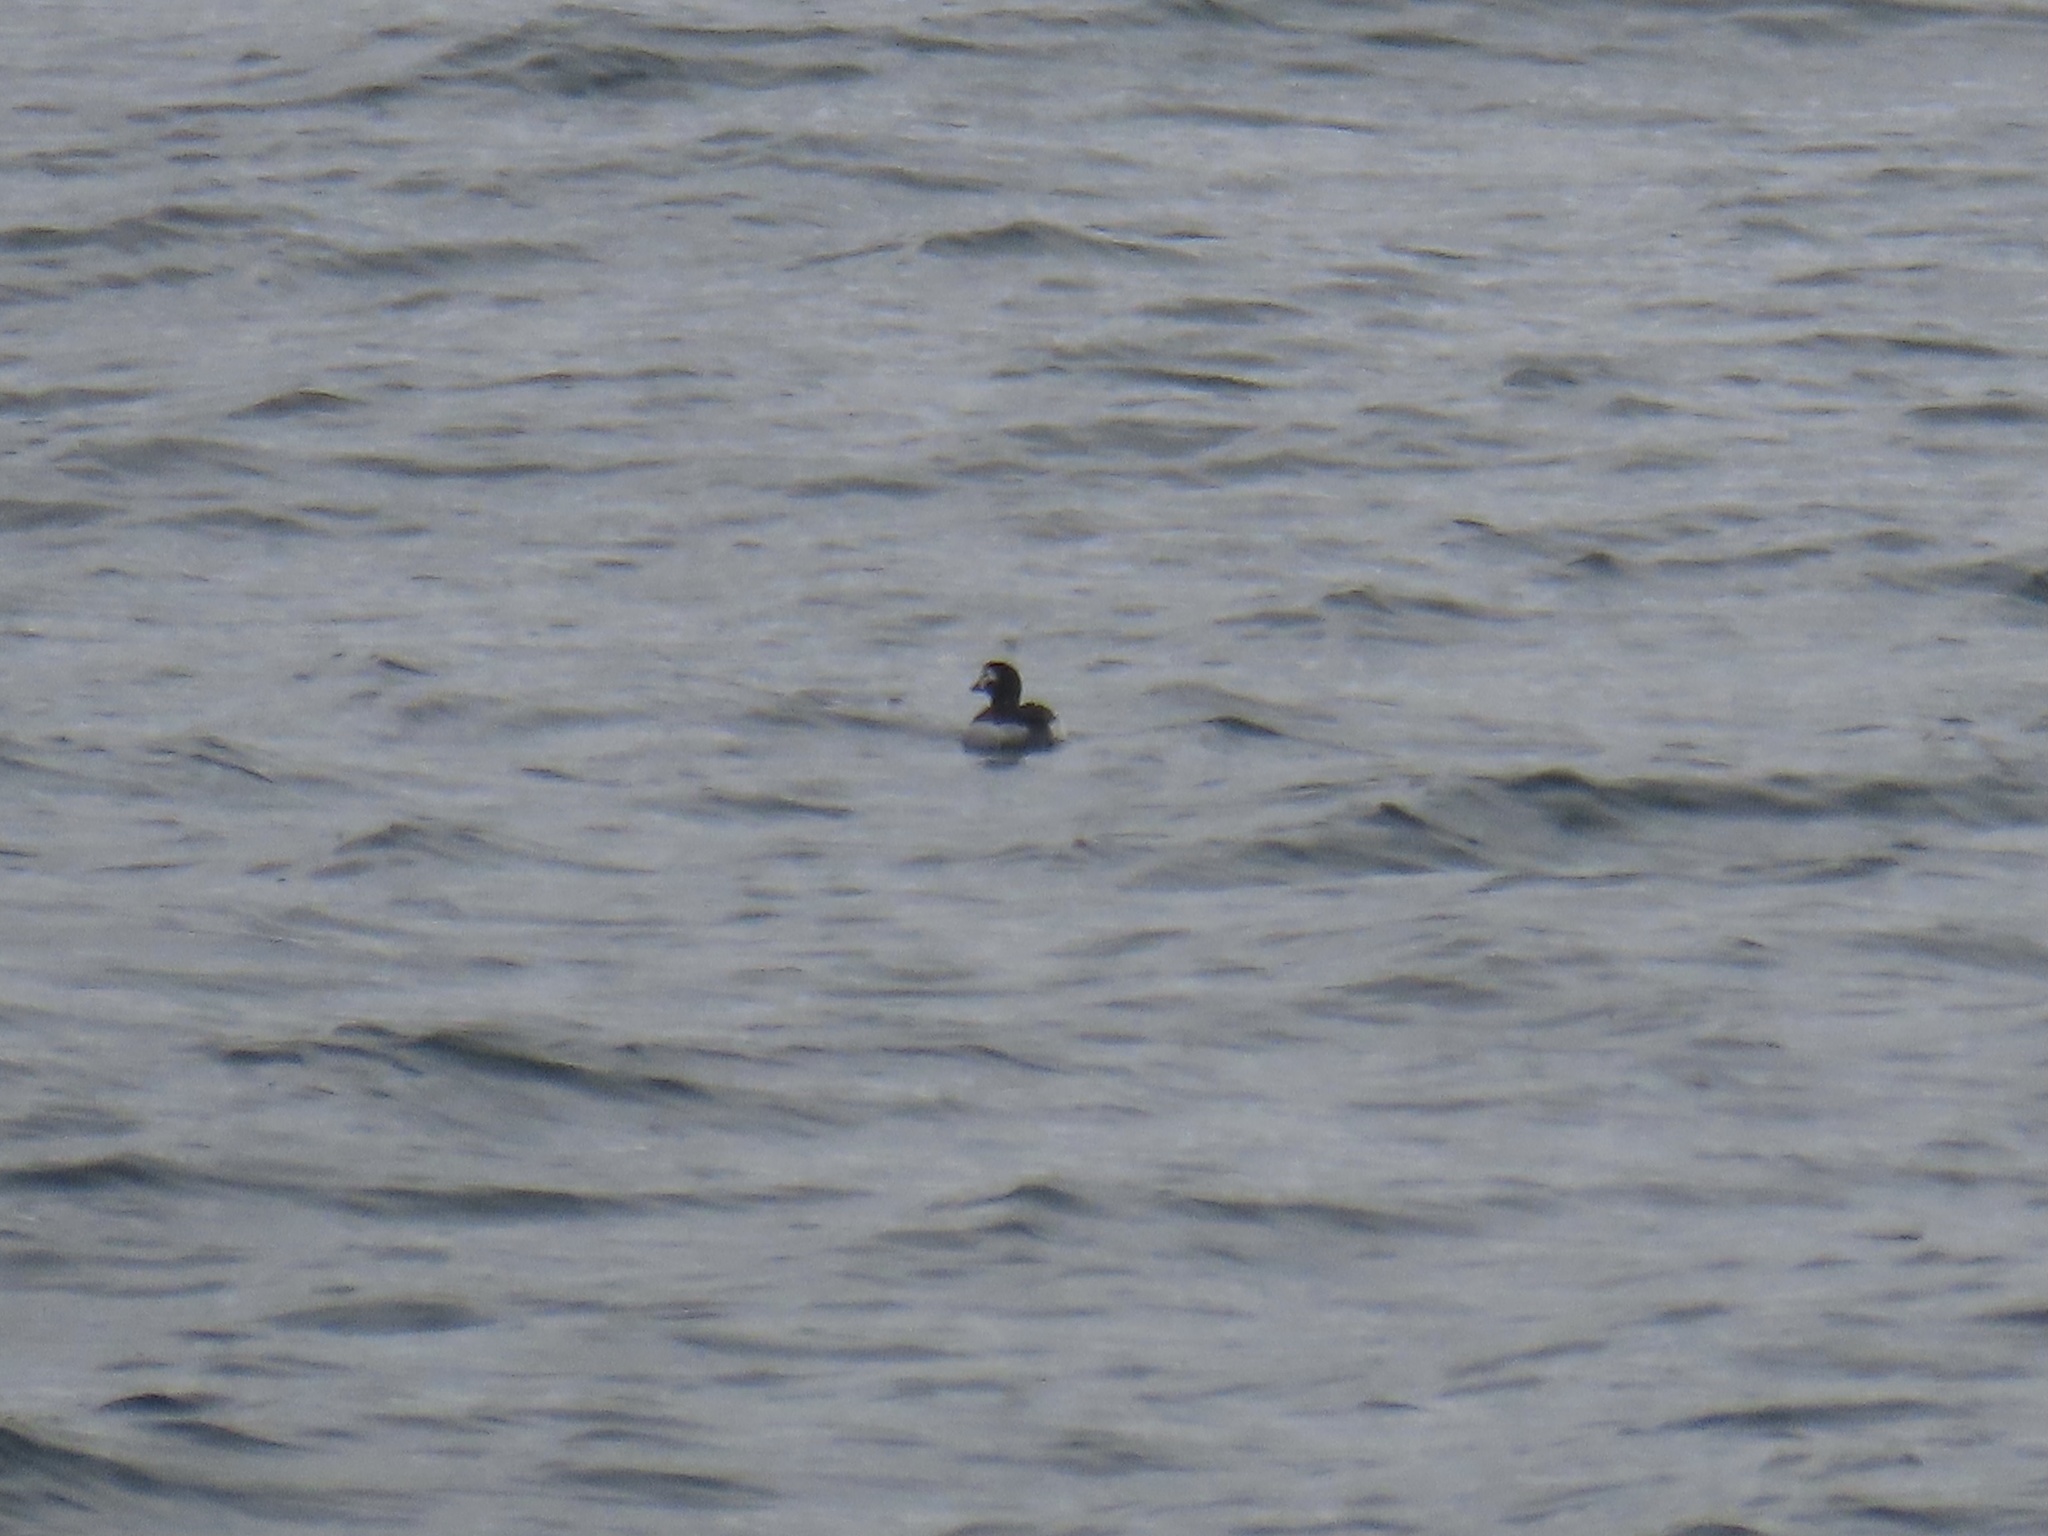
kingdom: Animalia
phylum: Chordata
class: Aves
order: Anseriformes
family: Anatidae
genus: Clangula
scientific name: Clangula hyemalis
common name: Long-tailed duck
